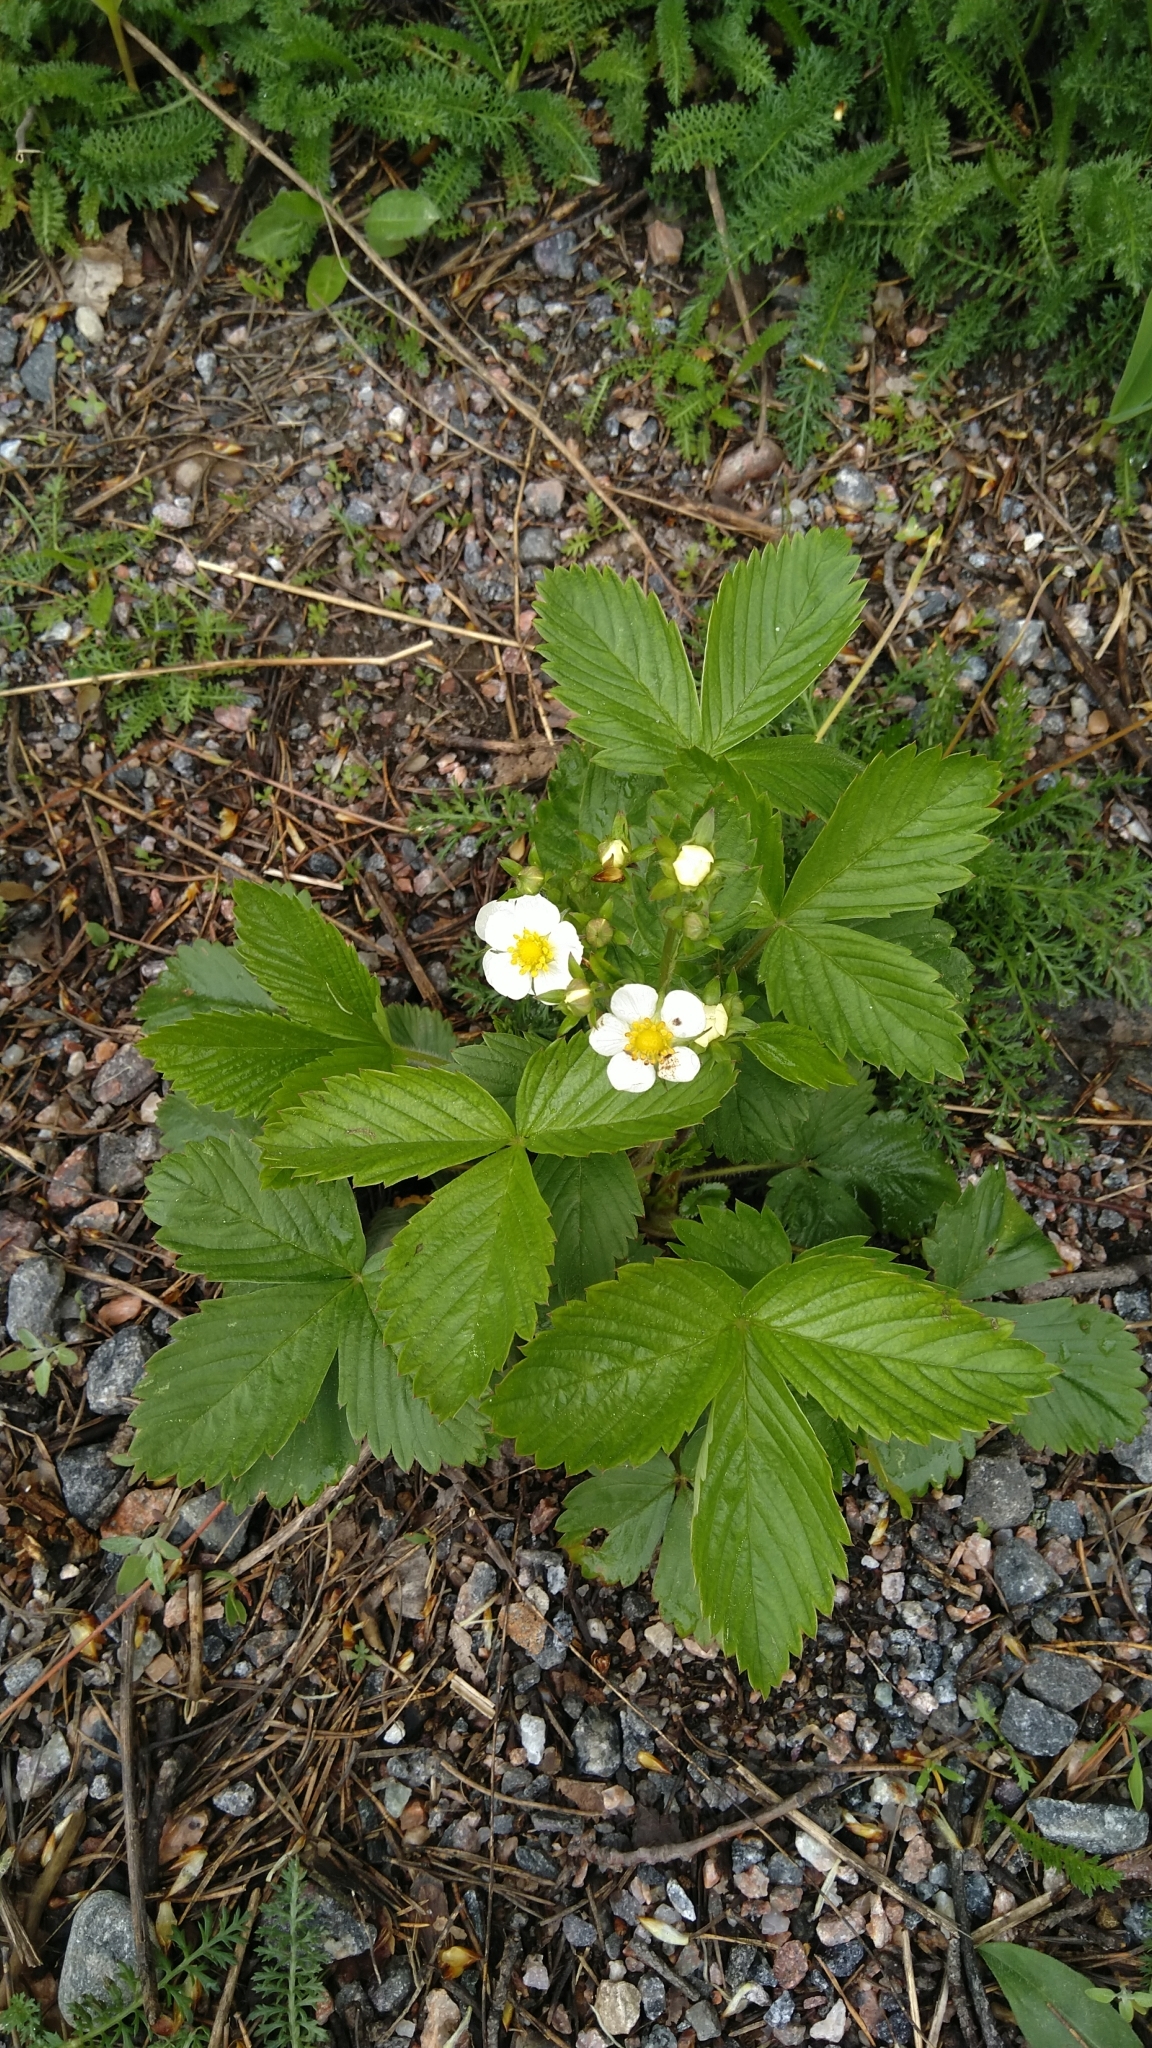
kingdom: Plantae
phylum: Tracheophyta
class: Magnoliopsida
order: Rosales
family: Rosaceae
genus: Fragaria
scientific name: Fragaria vesca
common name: Wild strawberry
